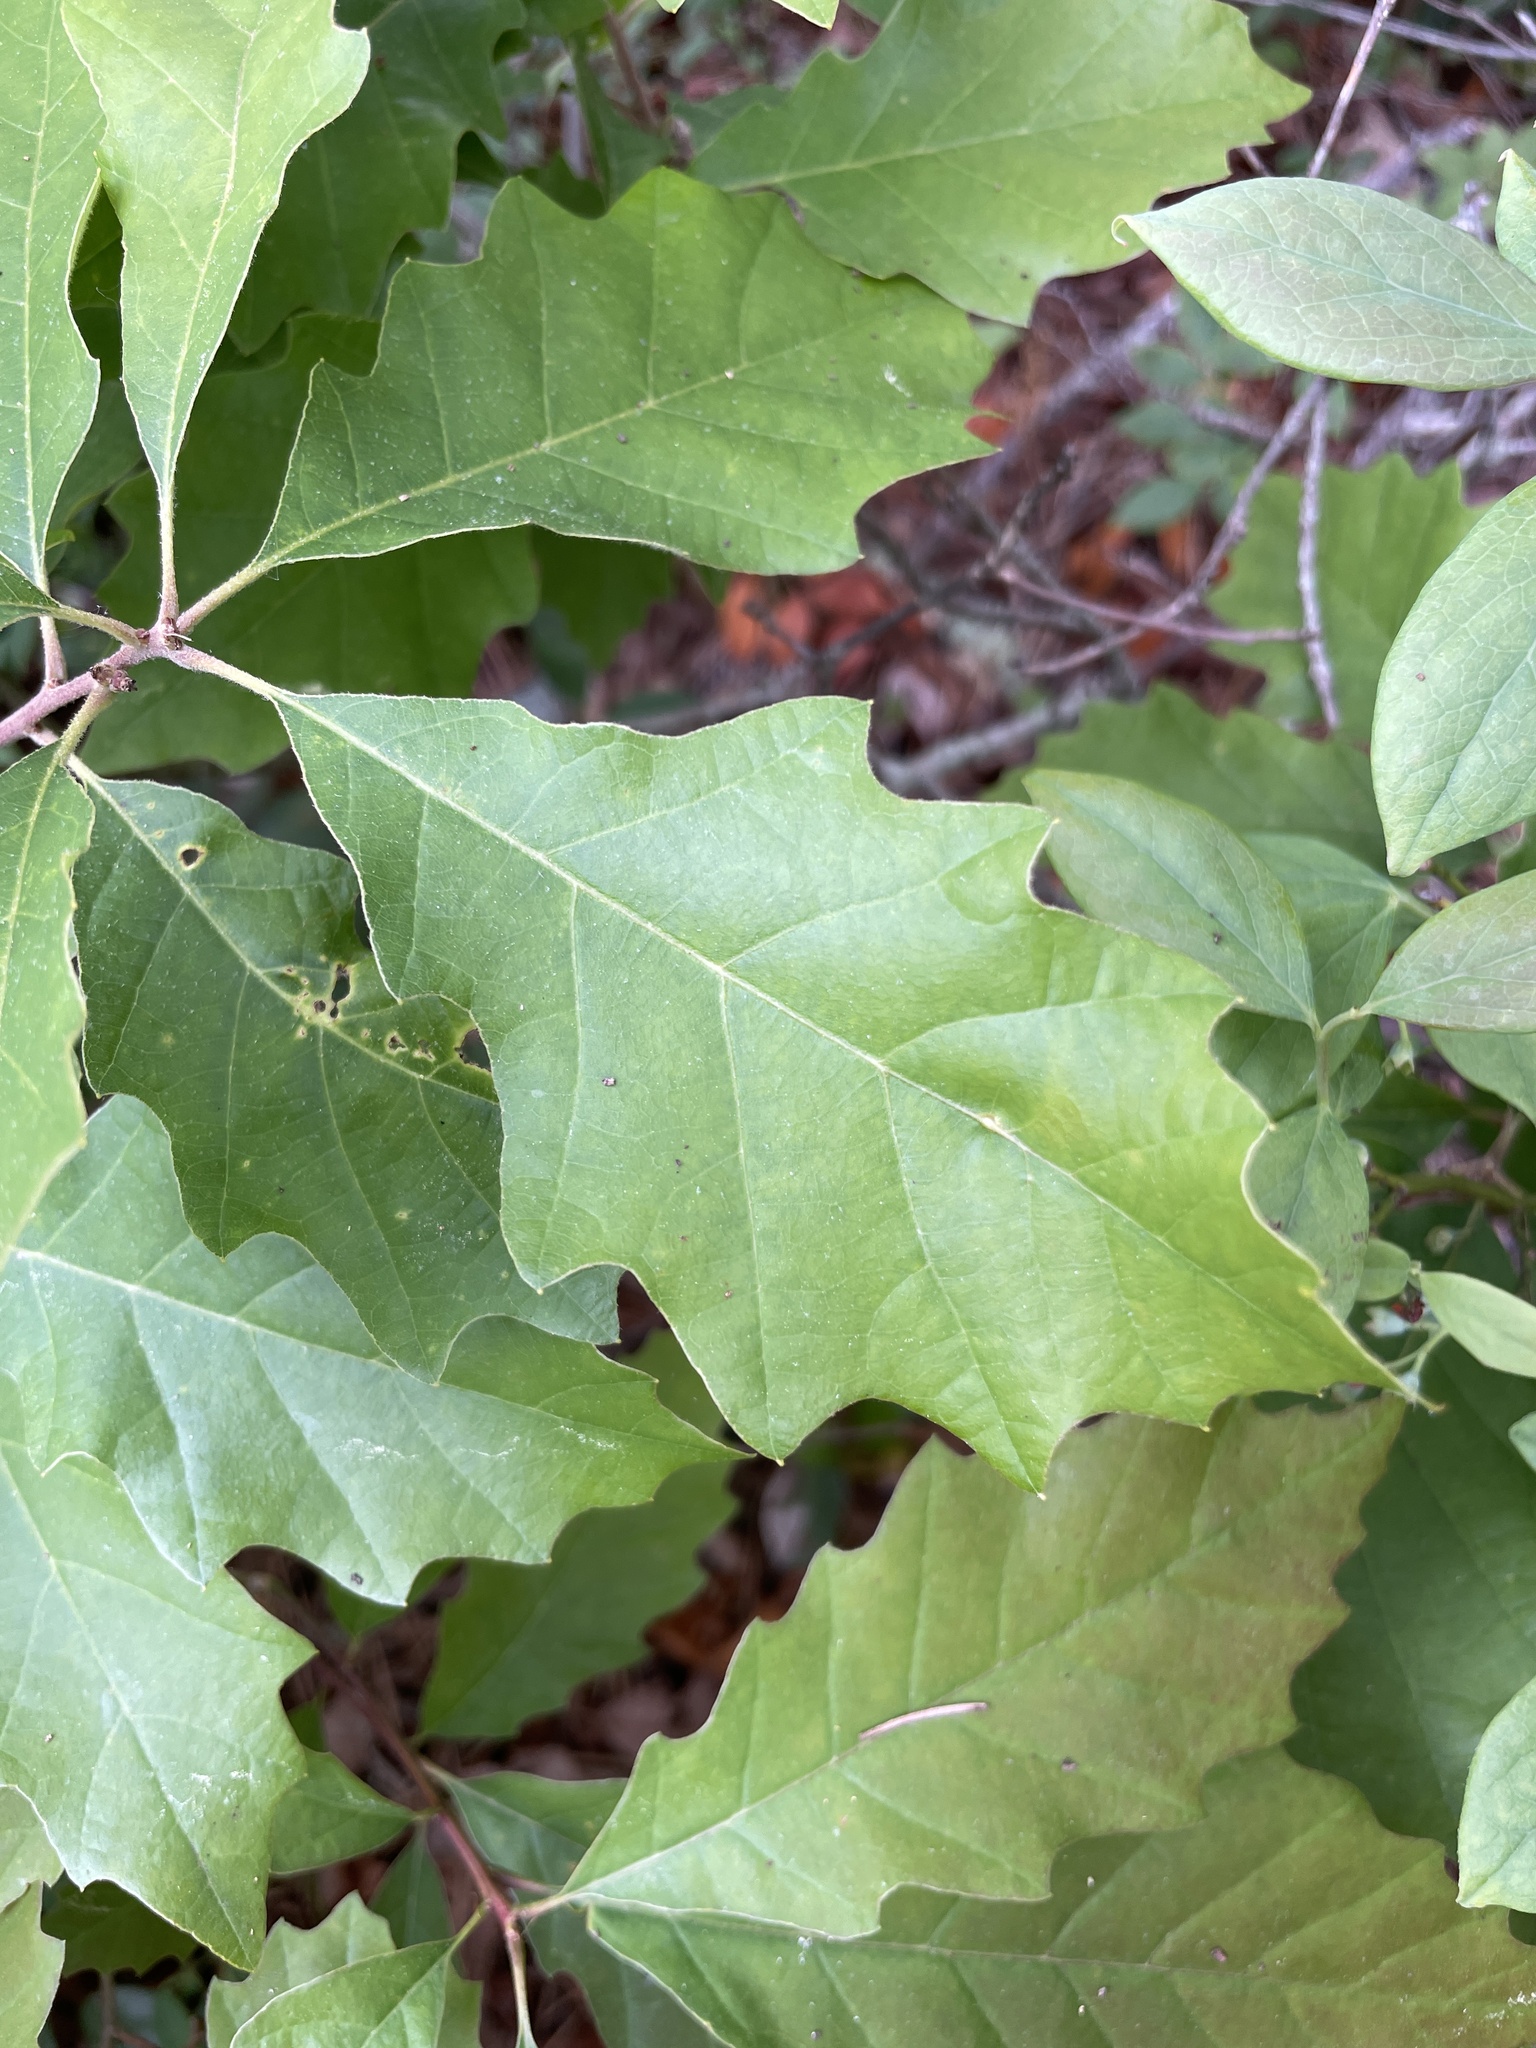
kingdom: Plantae
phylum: Tracheophyta
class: Magnoliopsida
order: Fagales
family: Fagaceae
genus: Quercus
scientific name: Quercus prinoides
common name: Dwarf chinkapin oak
